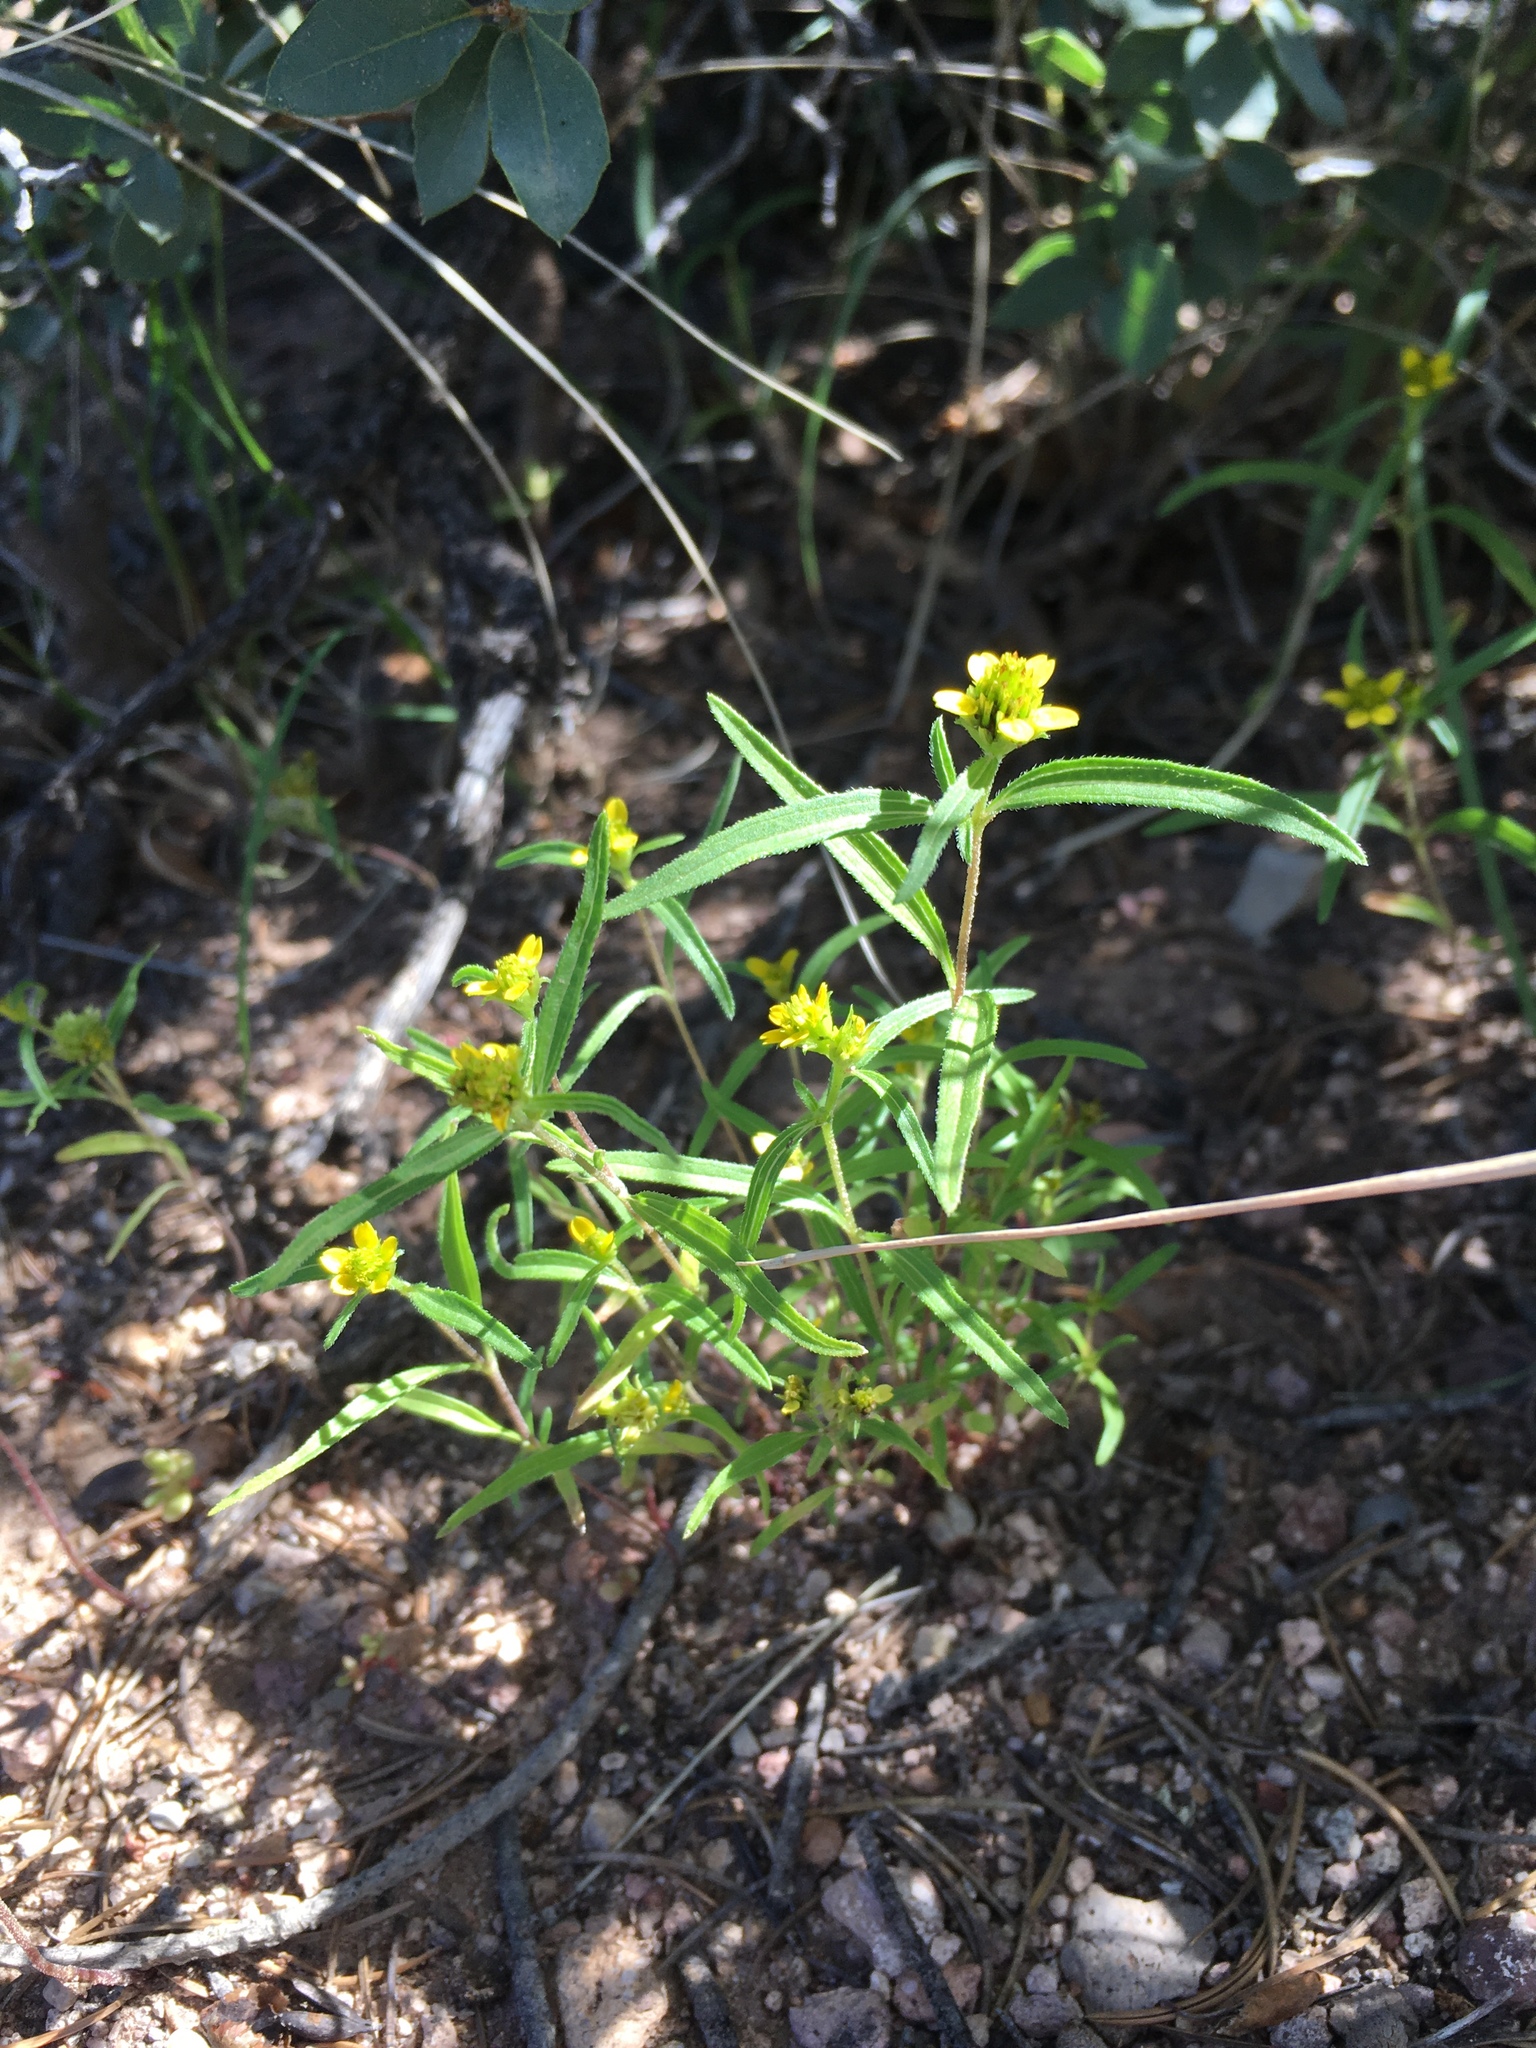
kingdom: Plantae
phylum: Tracheophyta
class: Magnoliopsida
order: Asterales
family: Asteraceae
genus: Sanvitalia
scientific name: Sanvitalia abertii
